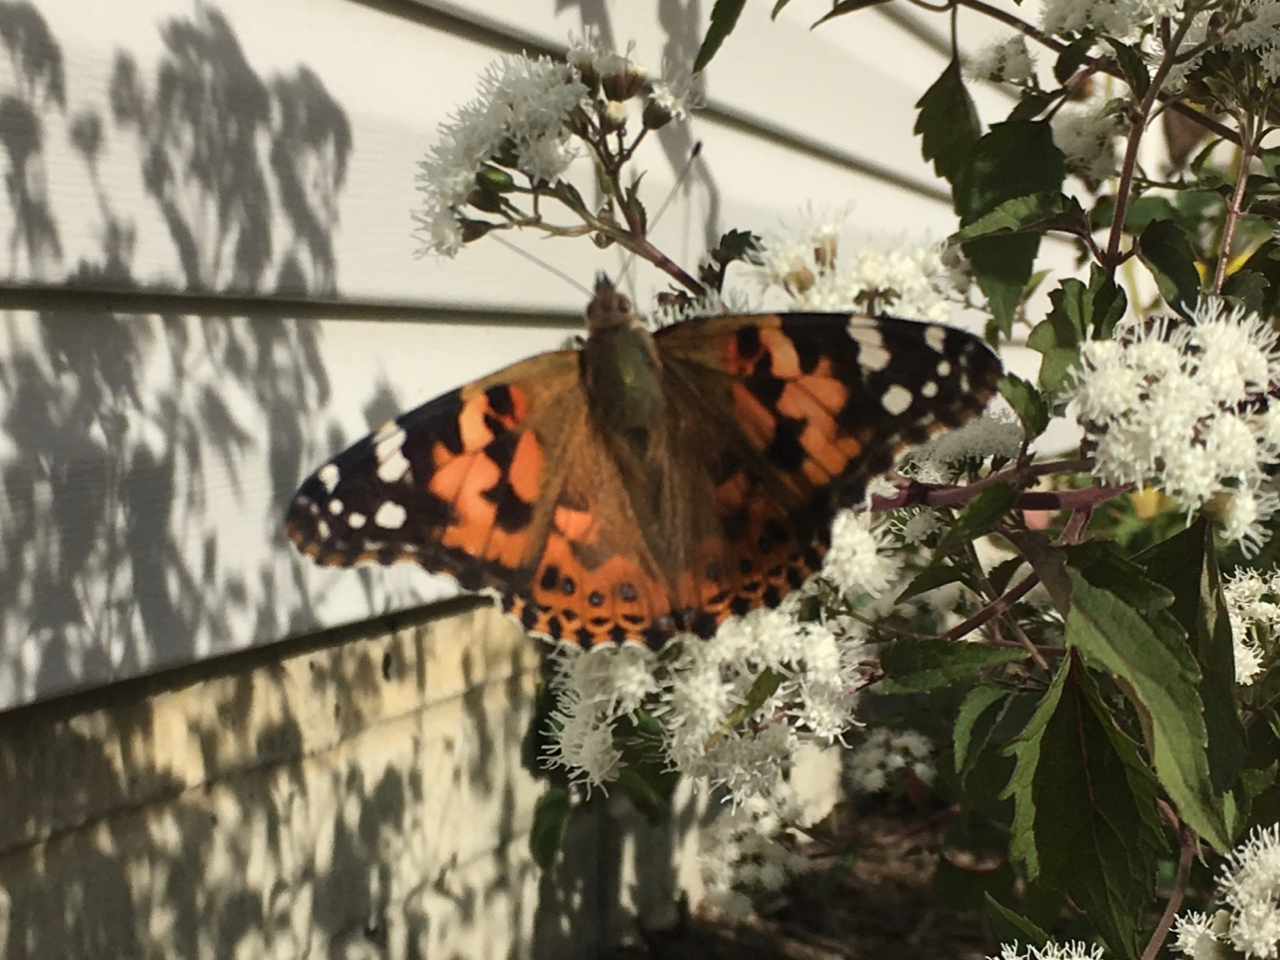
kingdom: Animalia
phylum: Arthropoda
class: Insecta
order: Lepidoptera
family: Nymphalidae
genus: Vanessa
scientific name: Vanessa cardui
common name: Painted lady
